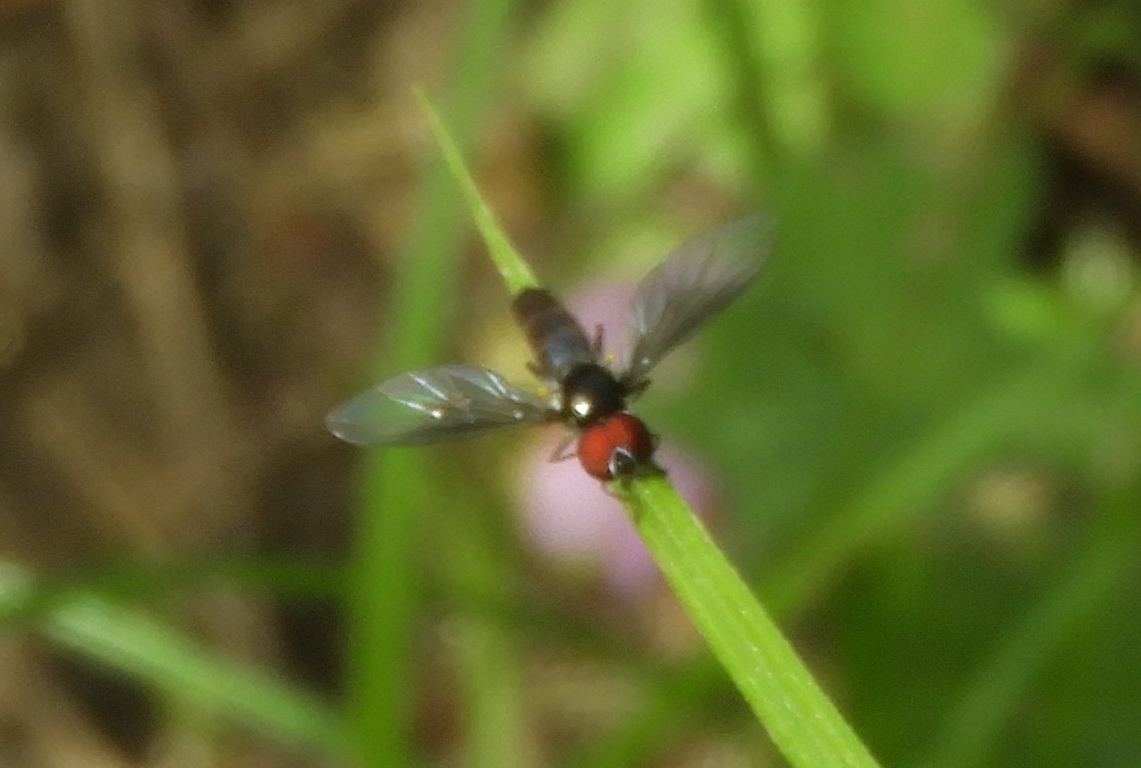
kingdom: Animalia
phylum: Arthropoda
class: Insecta
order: Diptera
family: Syrphidae
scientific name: Syrphidae
